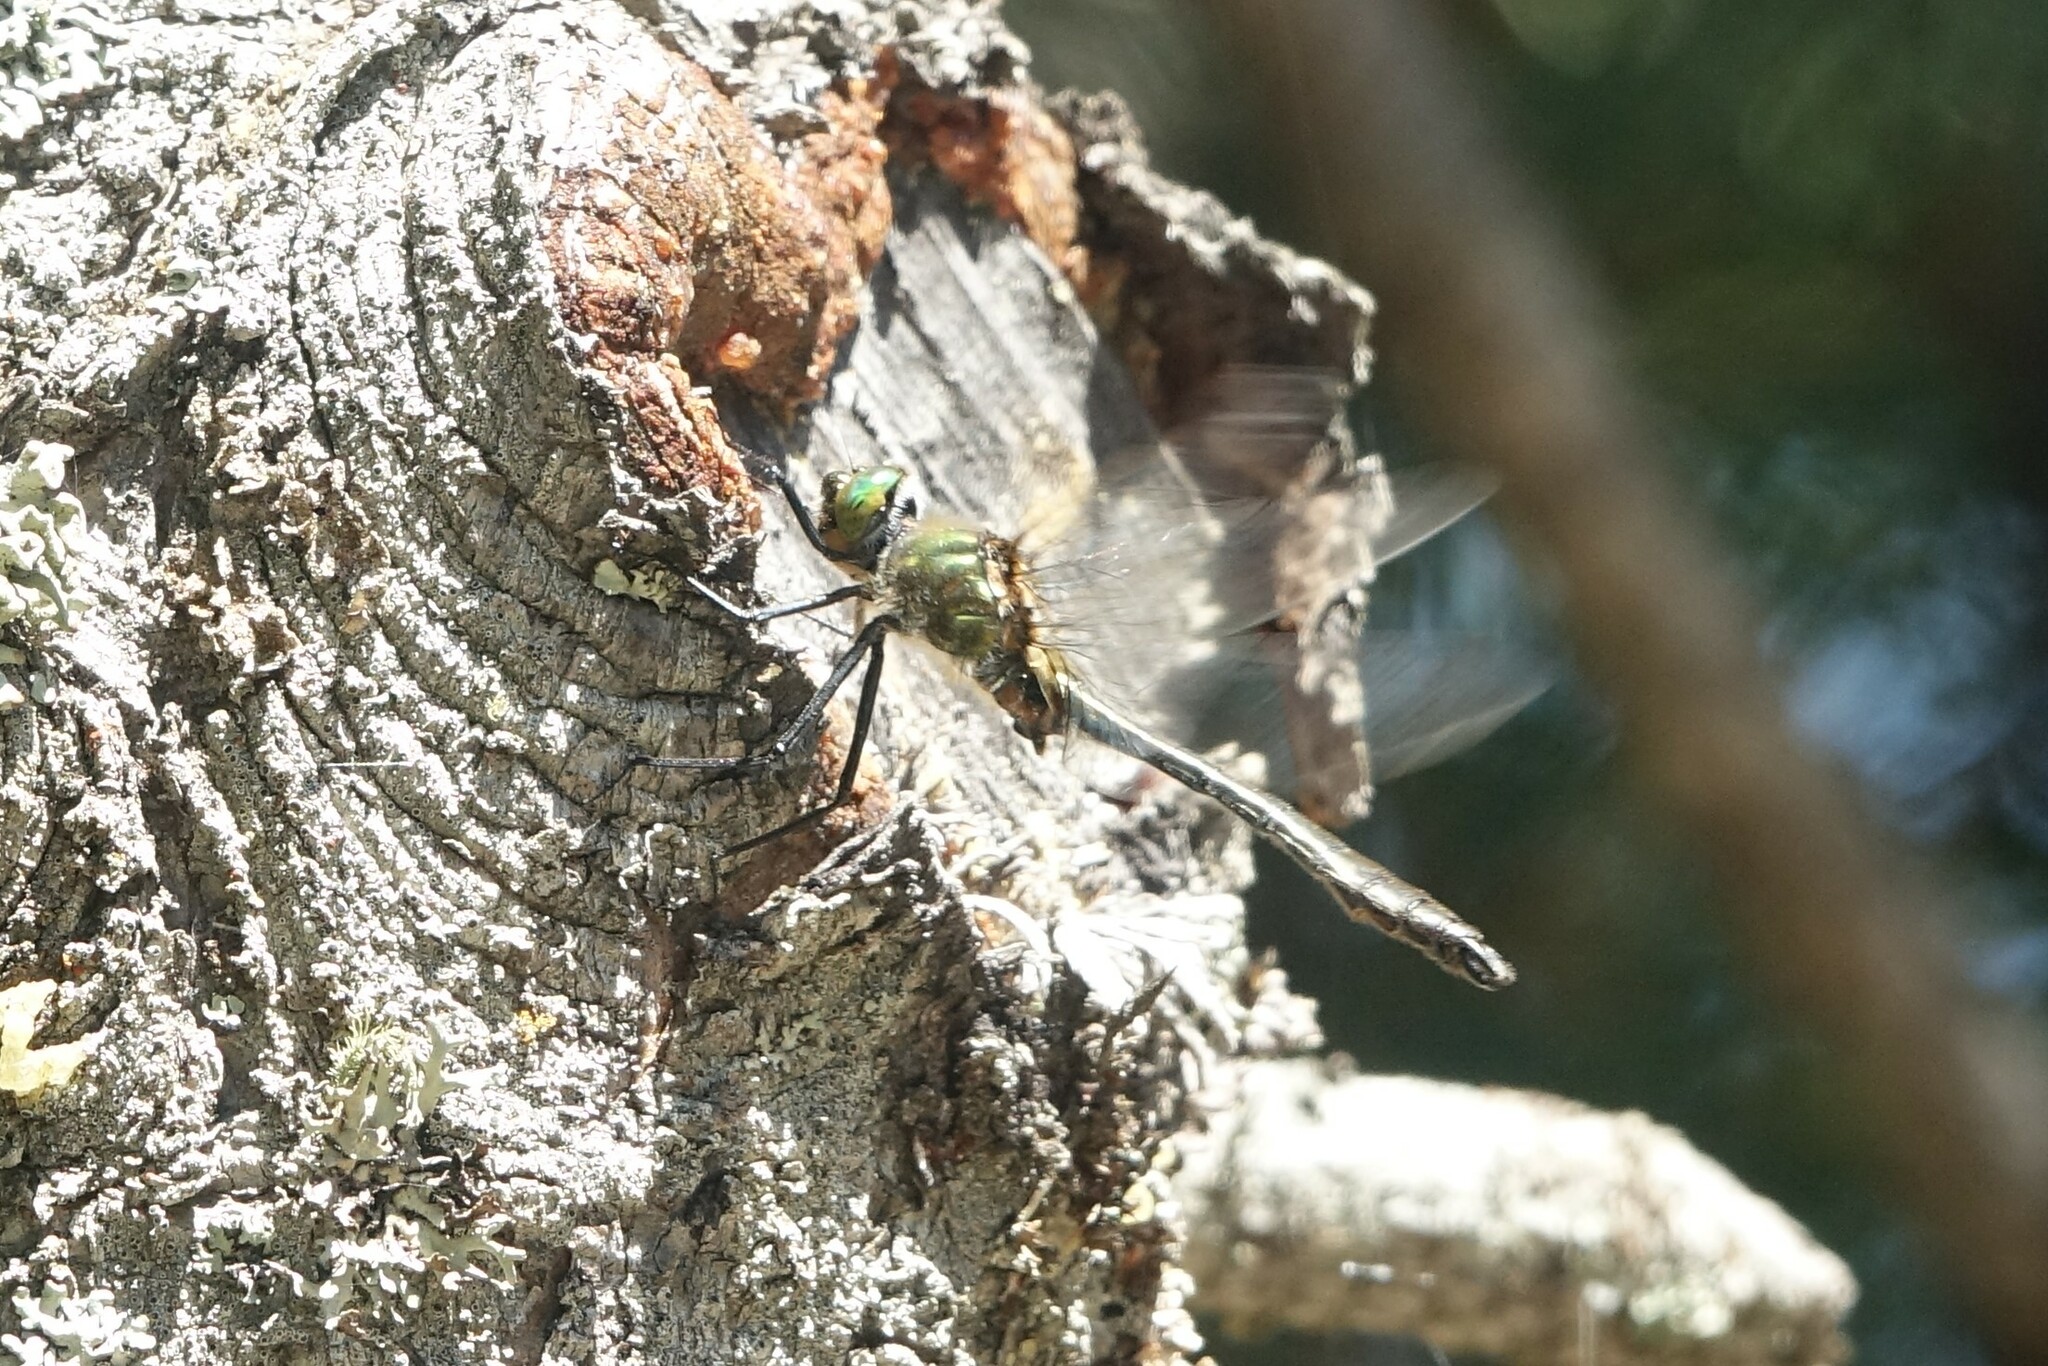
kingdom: Animalia
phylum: Arthropoda
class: Insecta
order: Odonata
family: Corduliidae
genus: Cordulia
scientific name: Cordulia aenea
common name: Downy emerald
